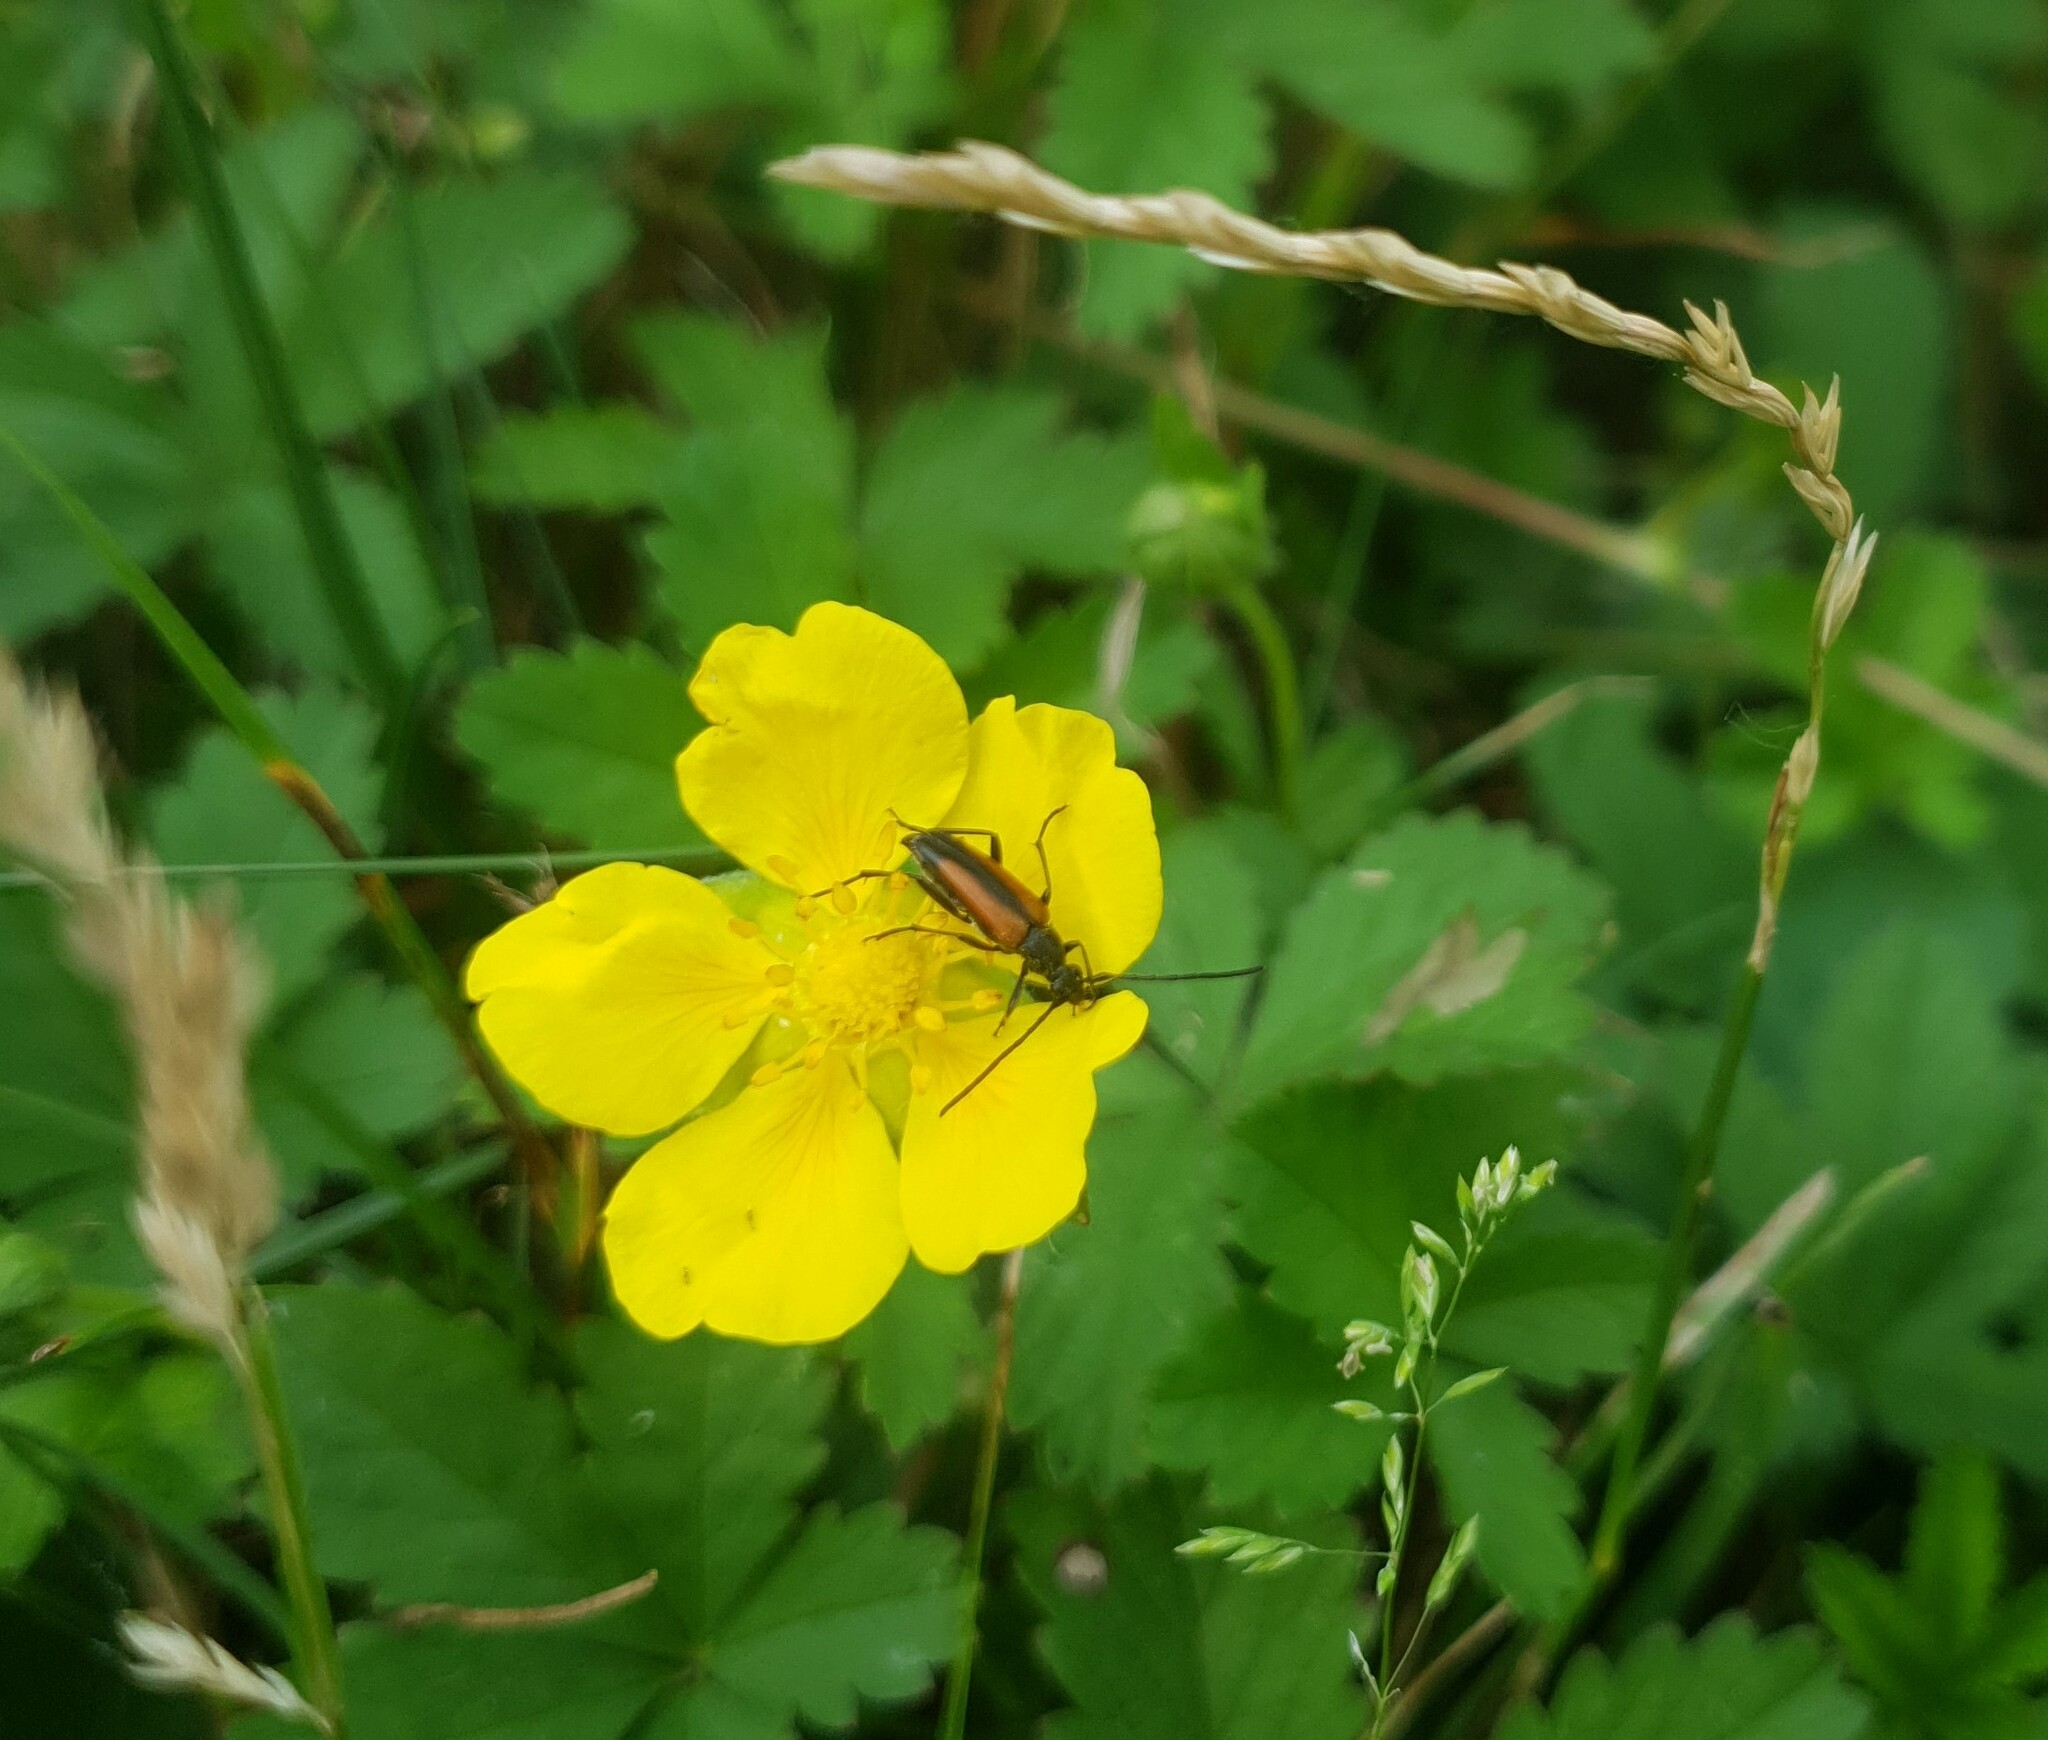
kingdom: Animalia
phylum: Arthropoda
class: Insecta
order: Coleoptera
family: Cerambycidae
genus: Stenurella
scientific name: Stenurella melanura
